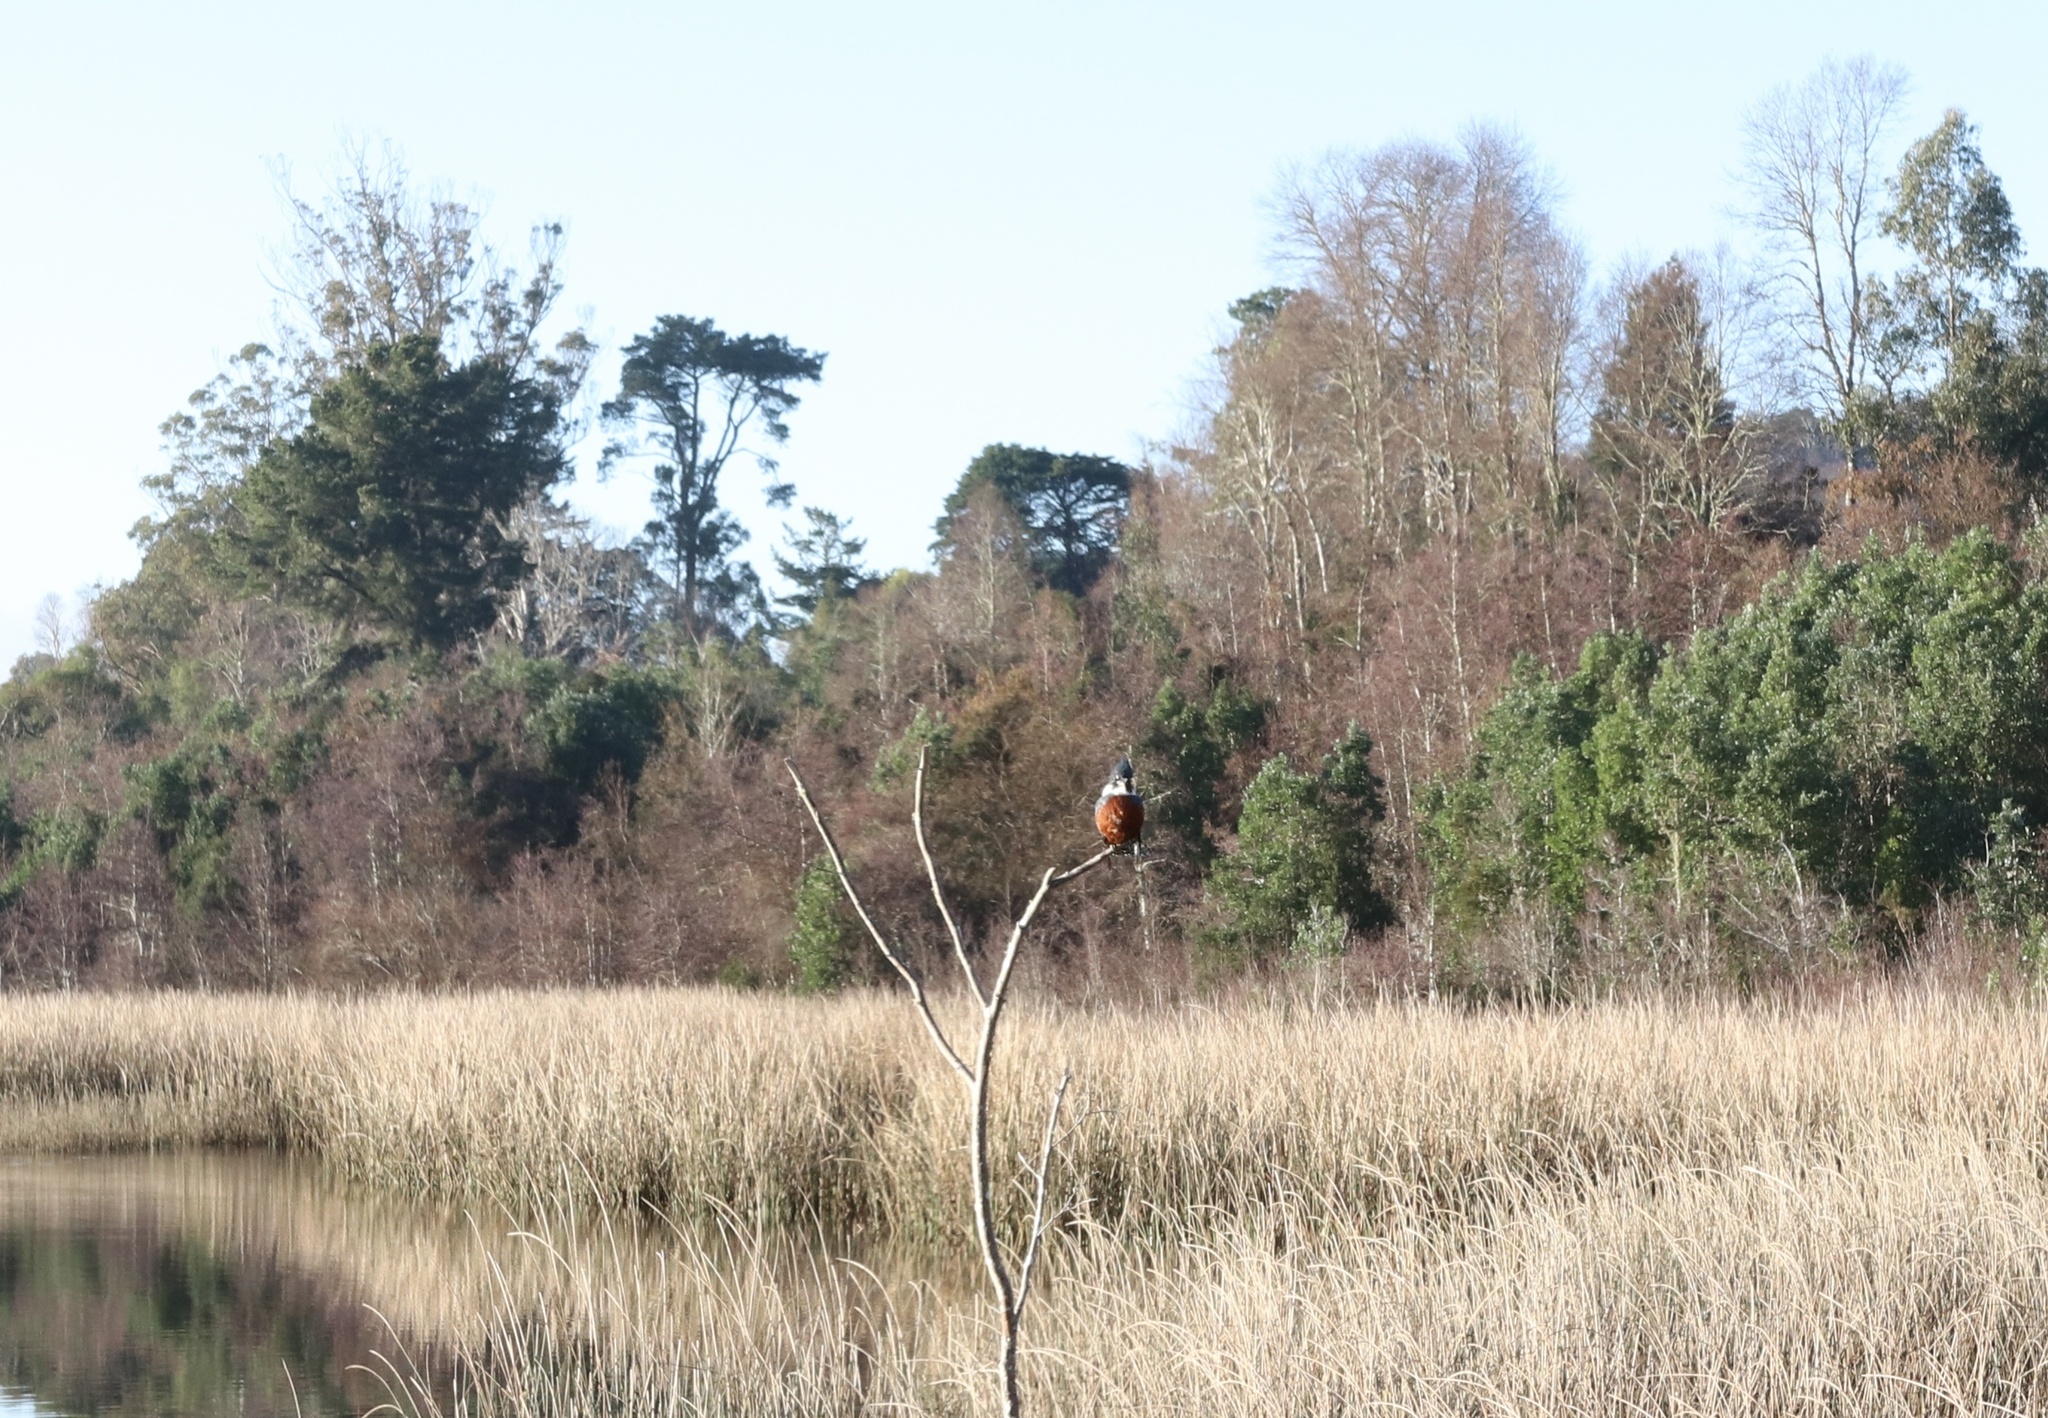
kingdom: Animalia
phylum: Chordata
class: Aves
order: Coraciiformes
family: Alcedinidae
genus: Megaceryle
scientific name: Megaceryle torquata
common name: Ringed kingfisher
